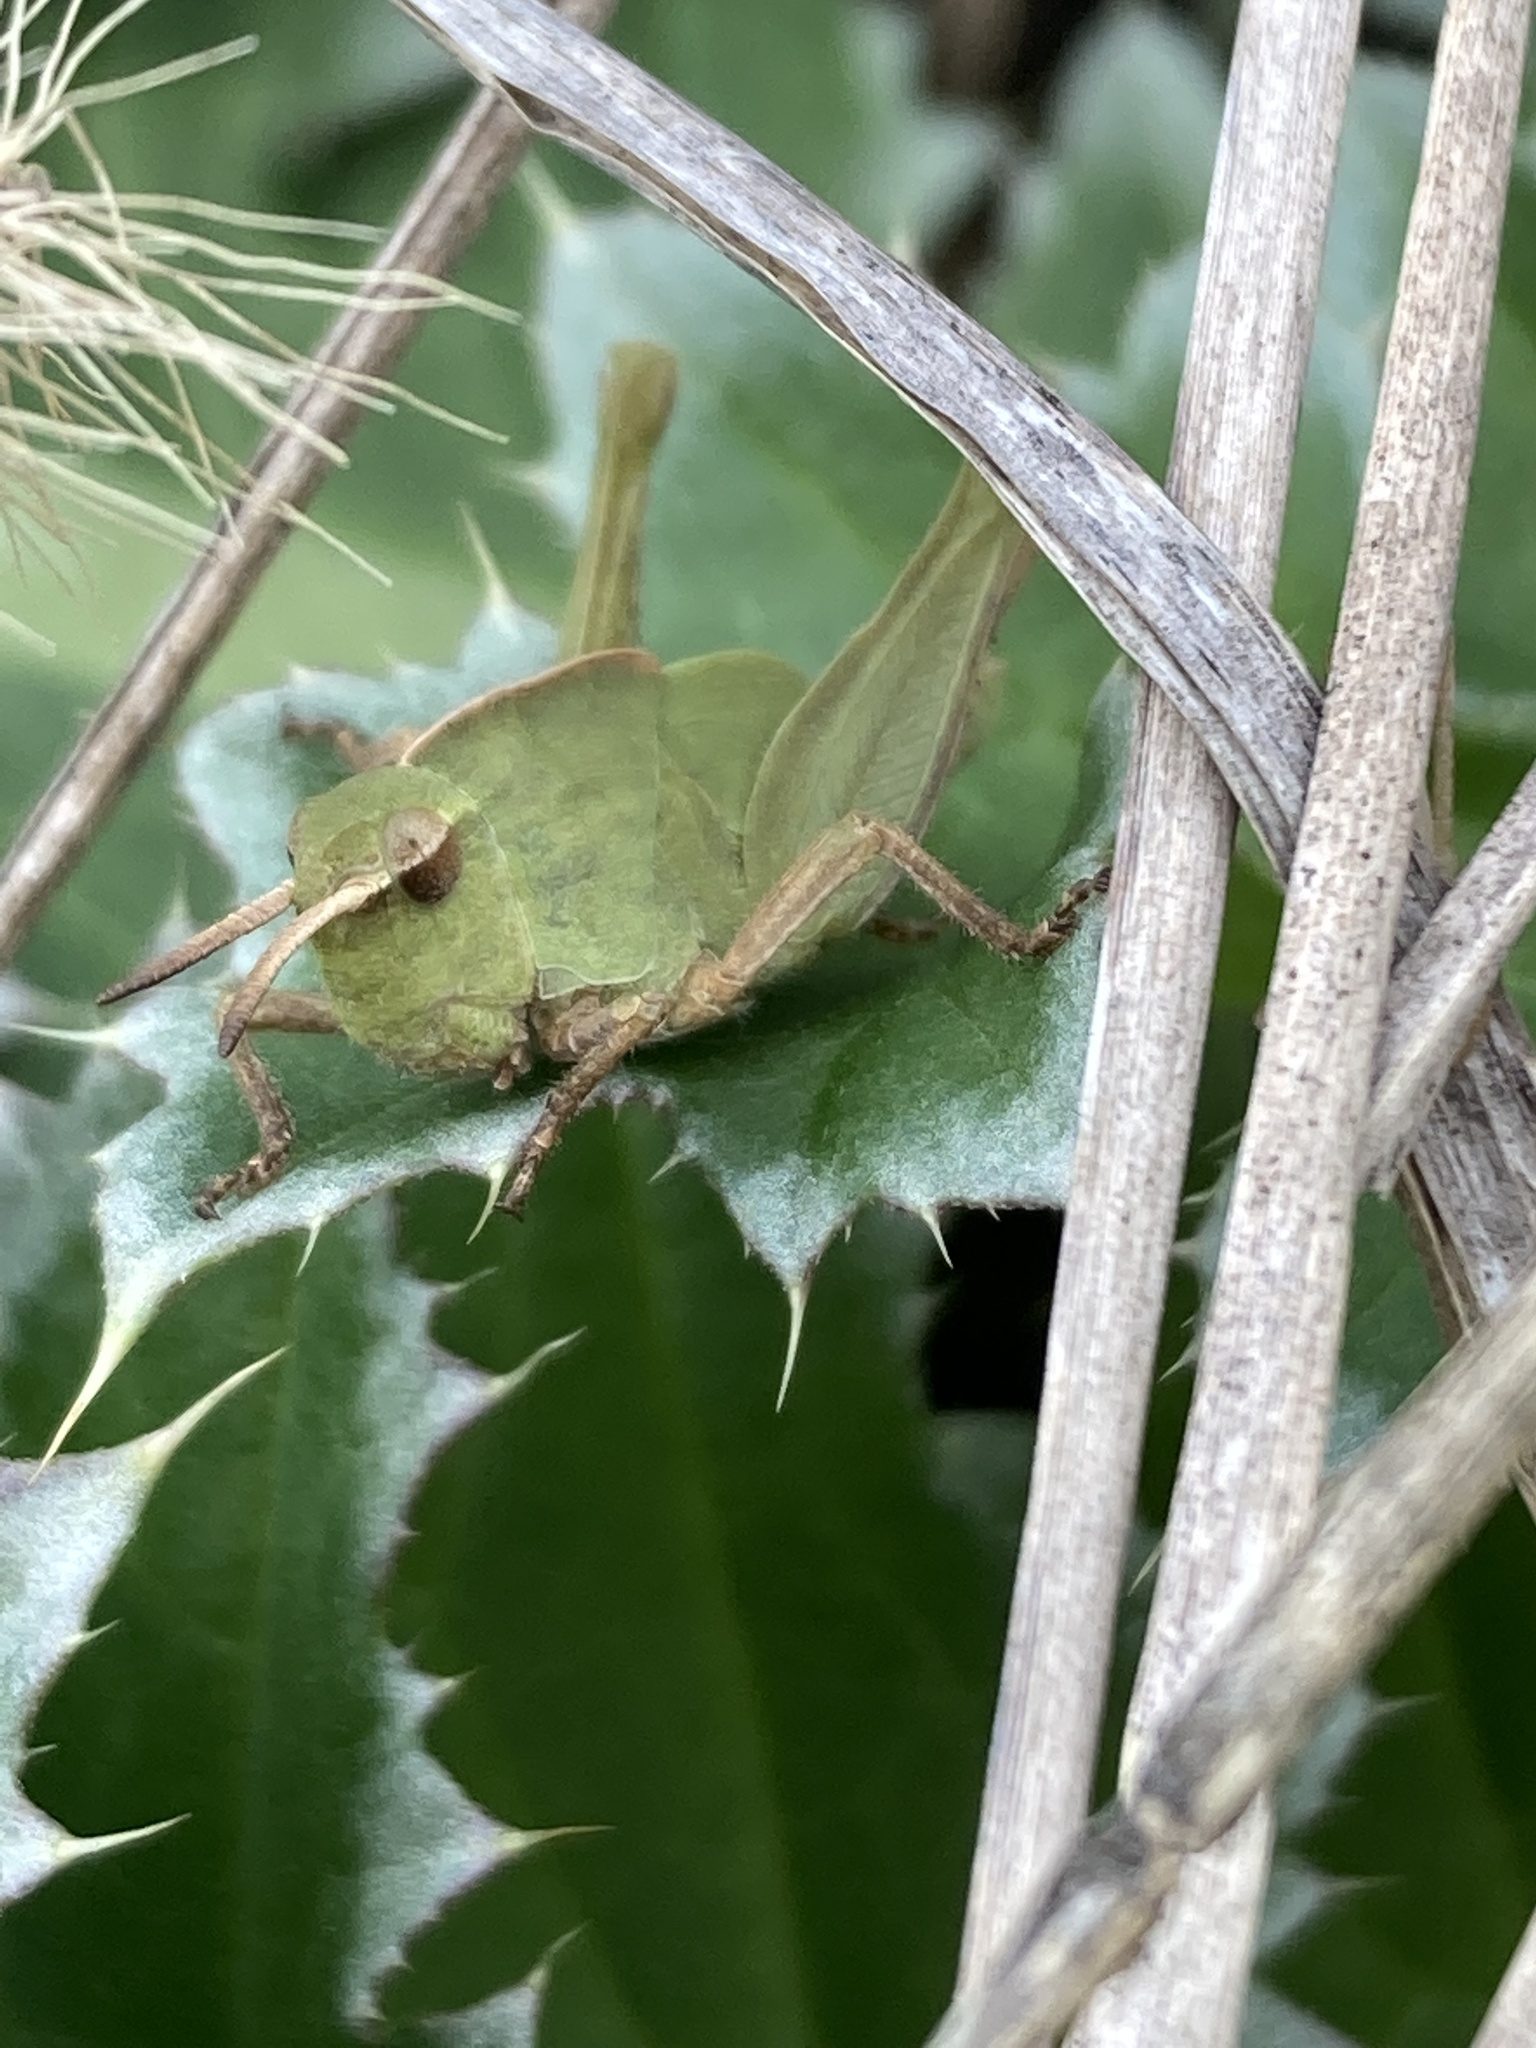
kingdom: Animalia
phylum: Arthropoda
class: Insecta
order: Orthoptera
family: Acrididae
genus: Chortophaga
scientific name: Chortophaga viridifasciata
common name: Green-striped grasshopper
